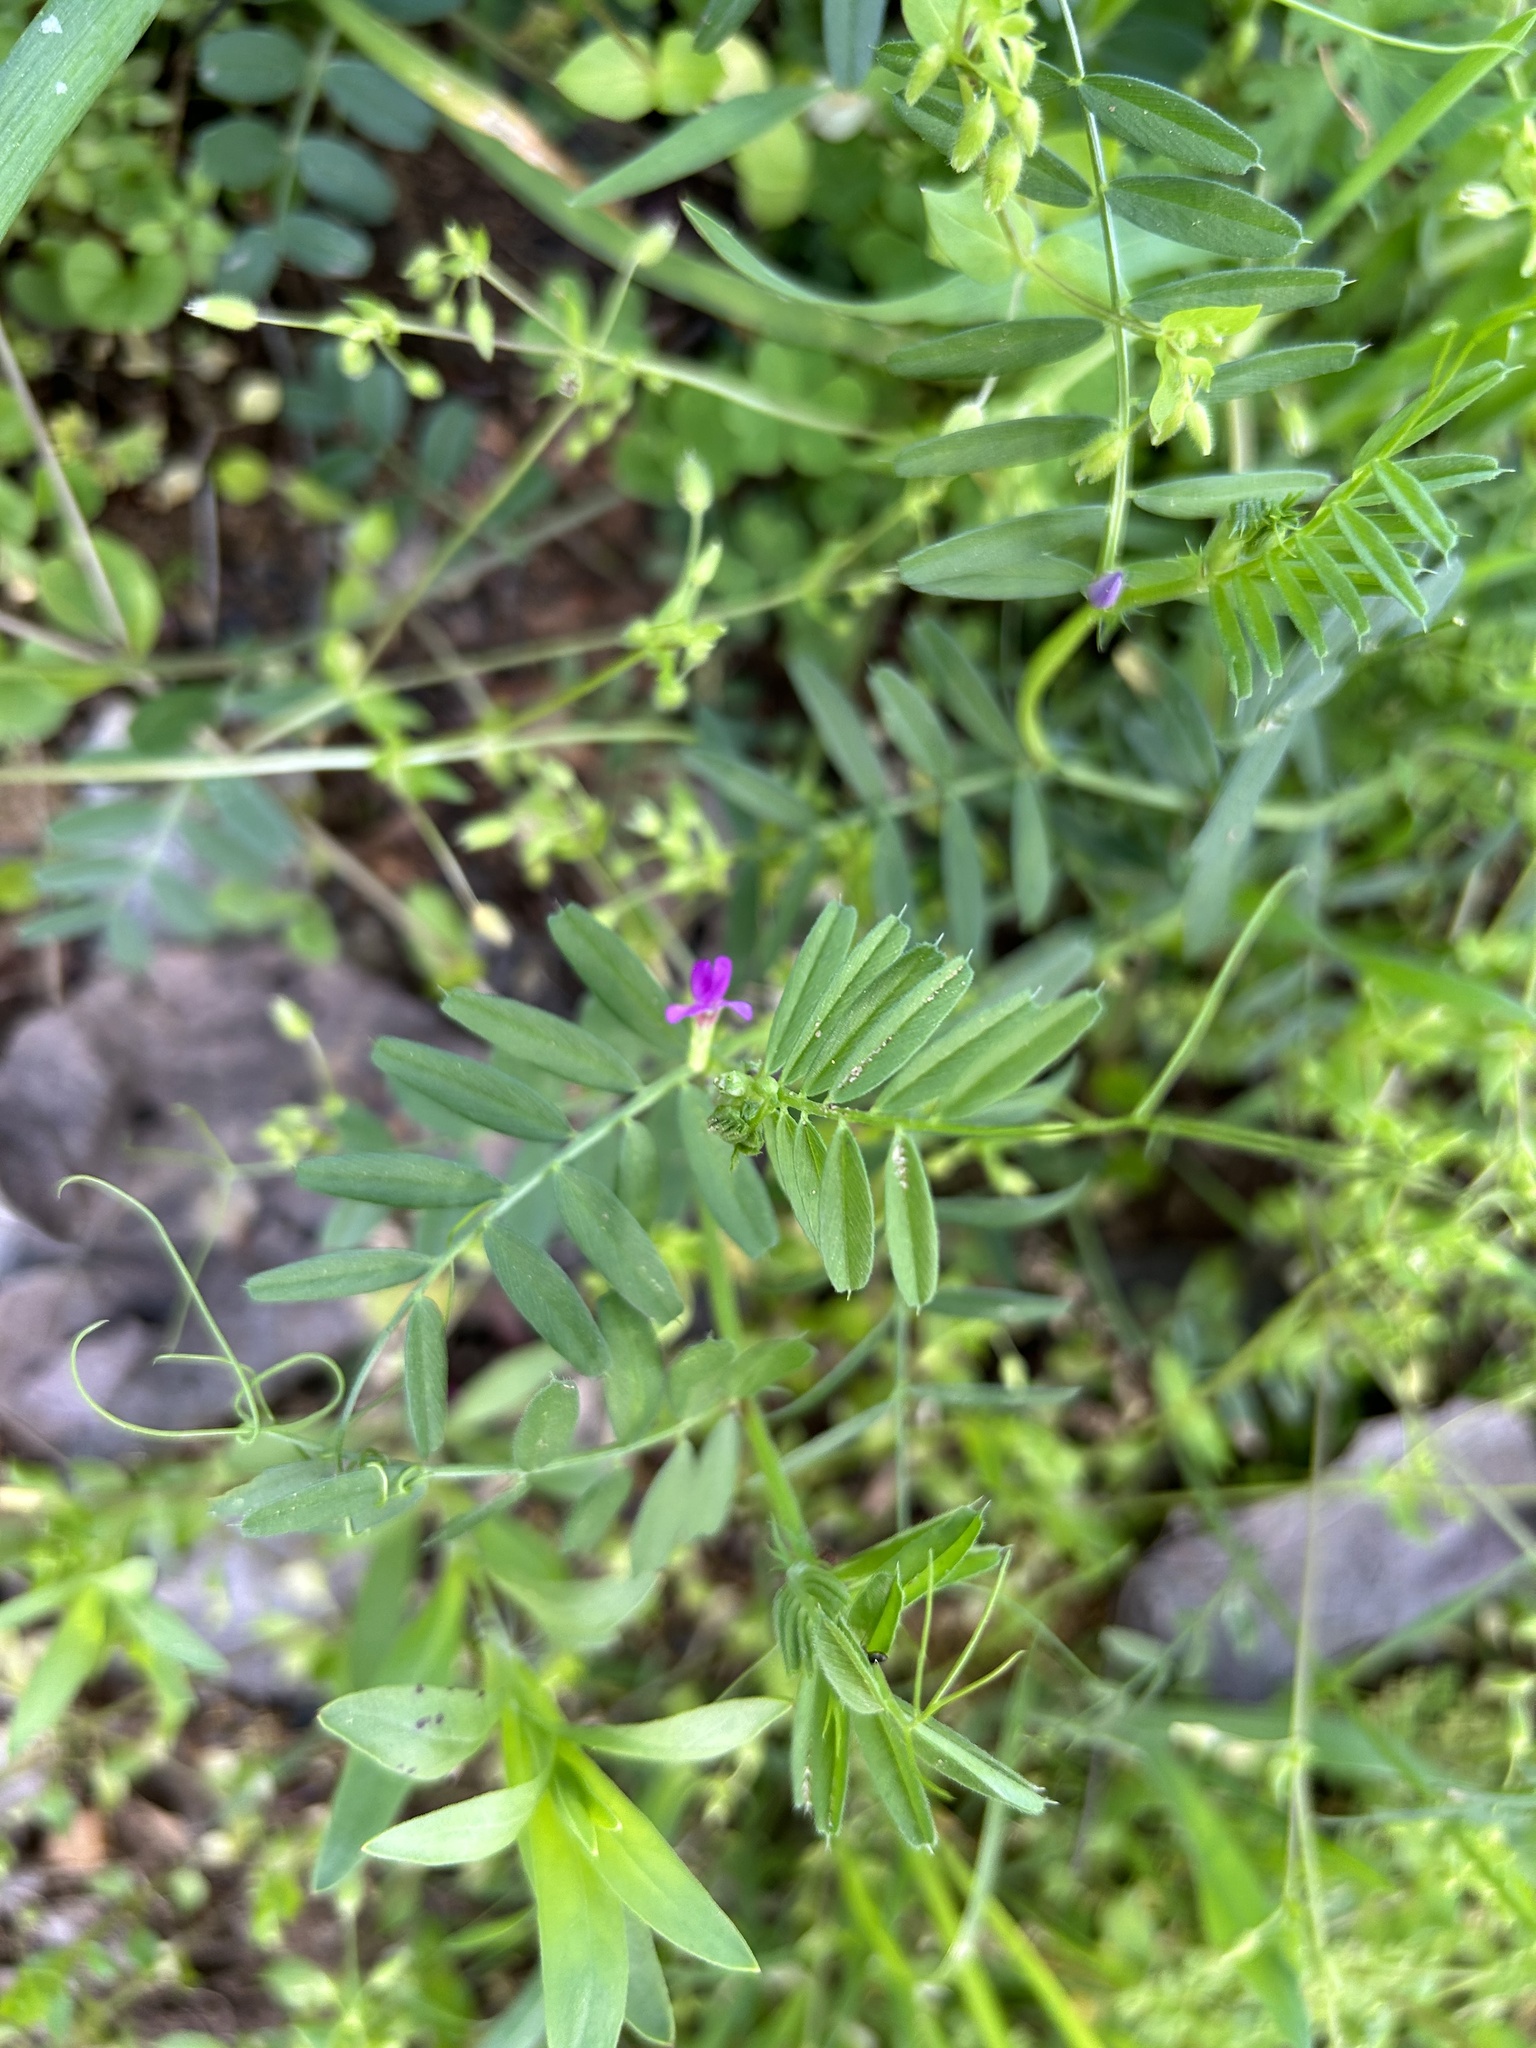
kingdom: Plantae
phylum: Tracheophyta
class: Magnoliopsida
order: Fabales
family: Fabaceae
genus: Vicia
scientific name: Vicia sativa
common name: Garden vetch
